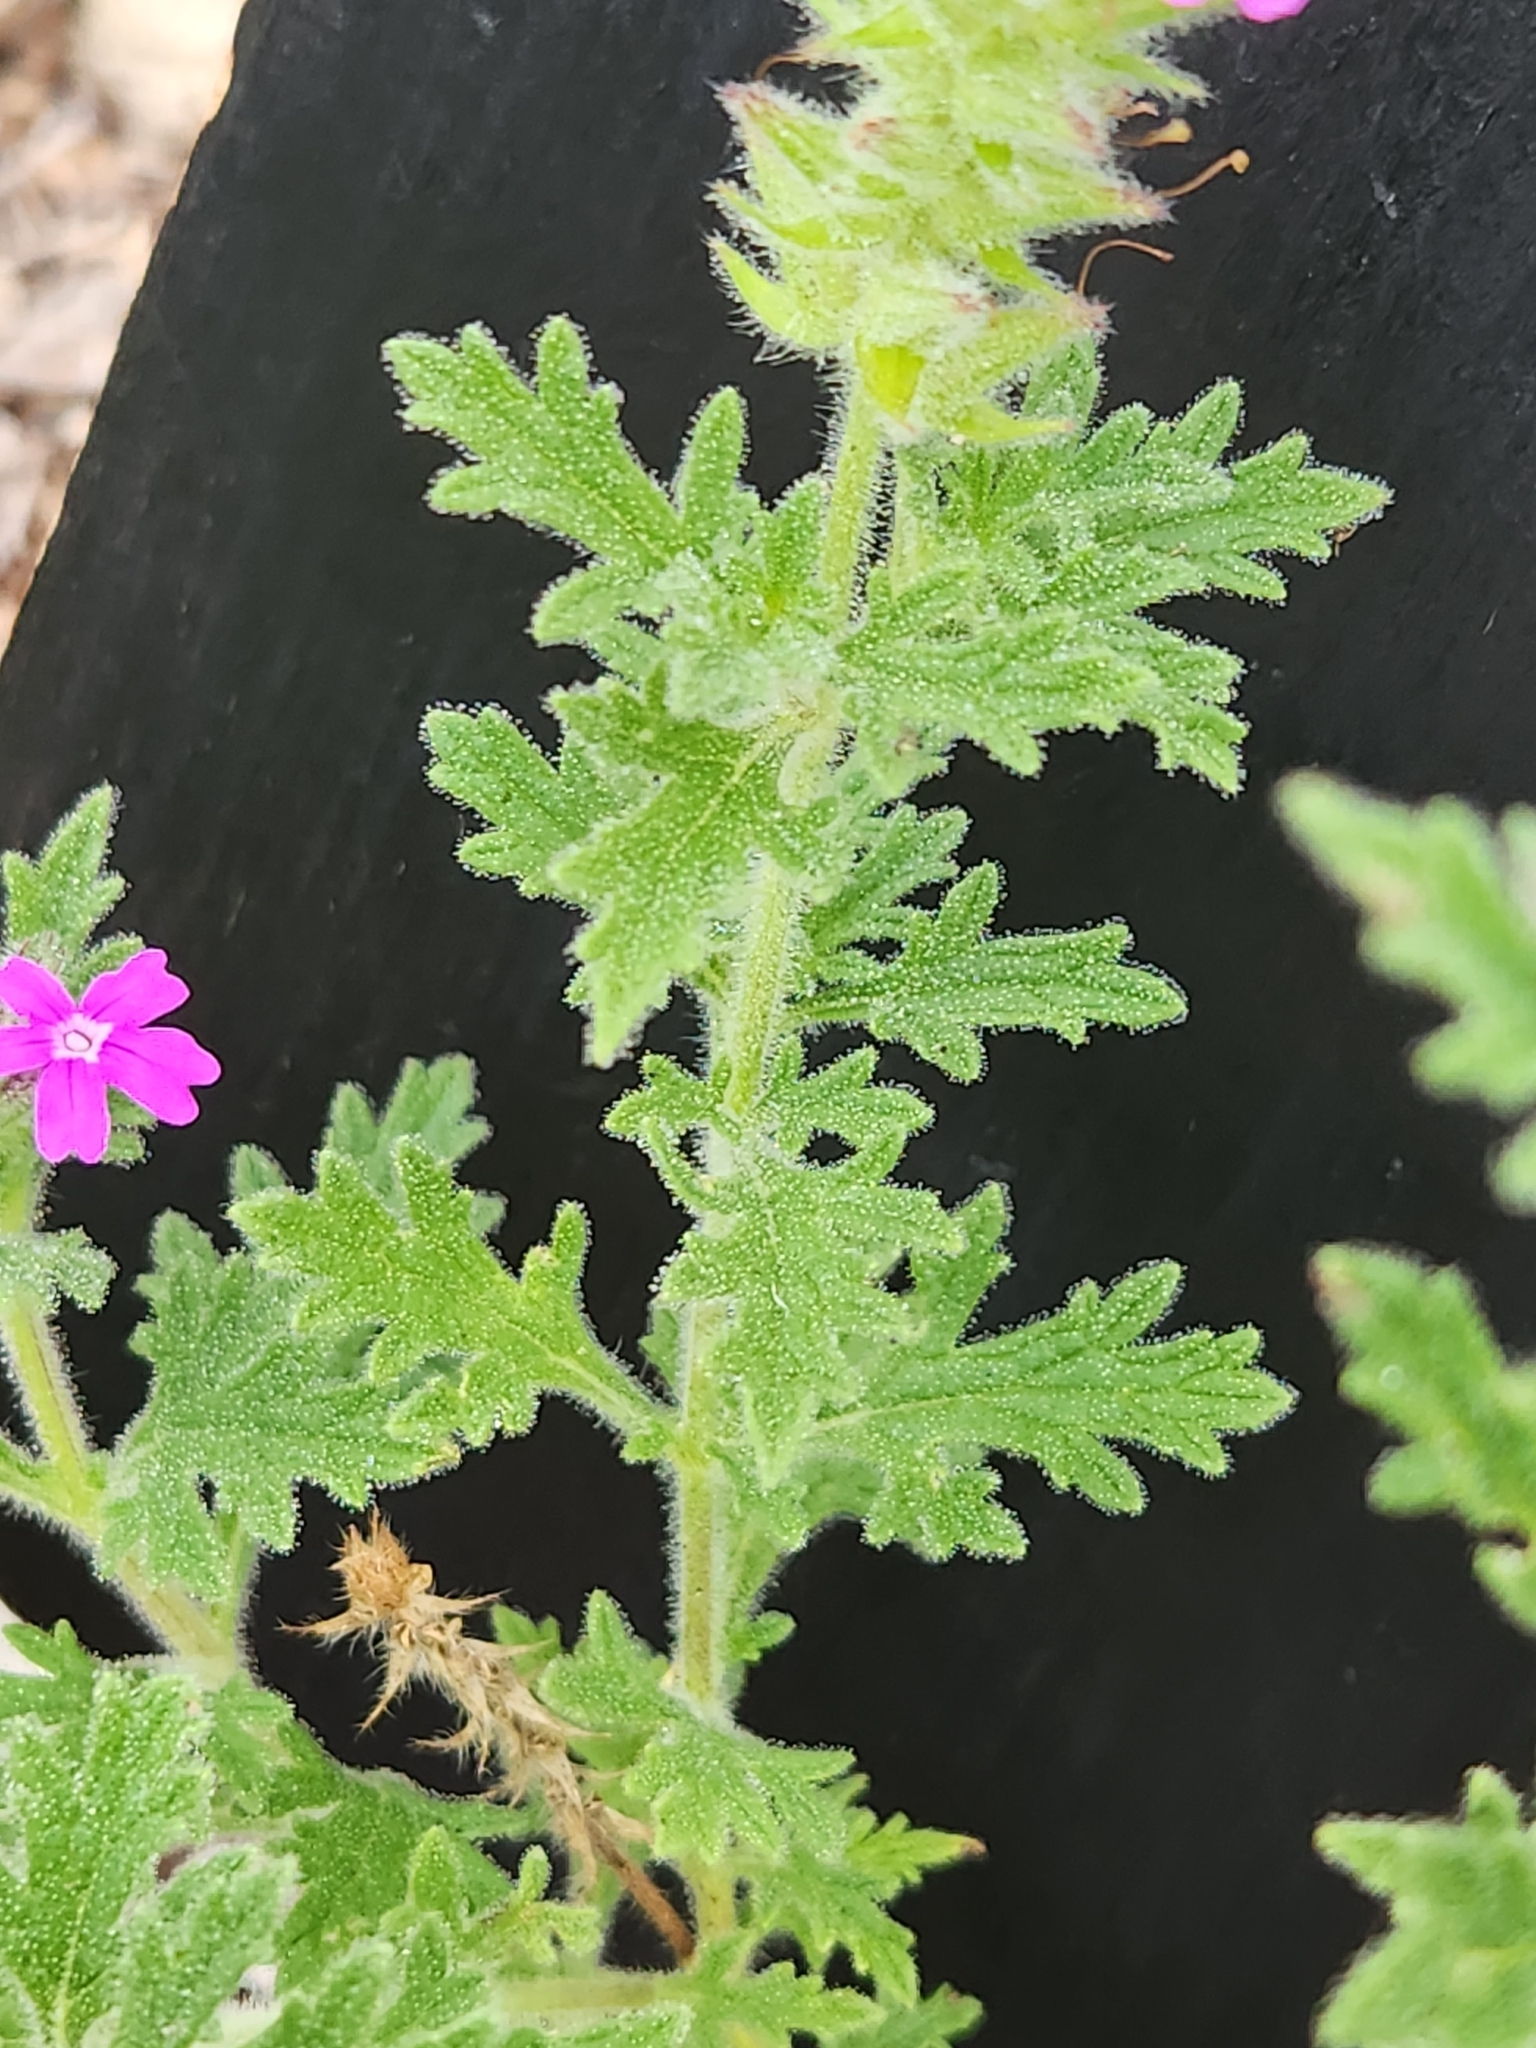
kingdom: Plantae
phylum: Tracheophyta
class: Magnoliopsida
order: Lamiales
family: Verbenaceae
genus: Verbena
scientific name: Verbena tumidula
